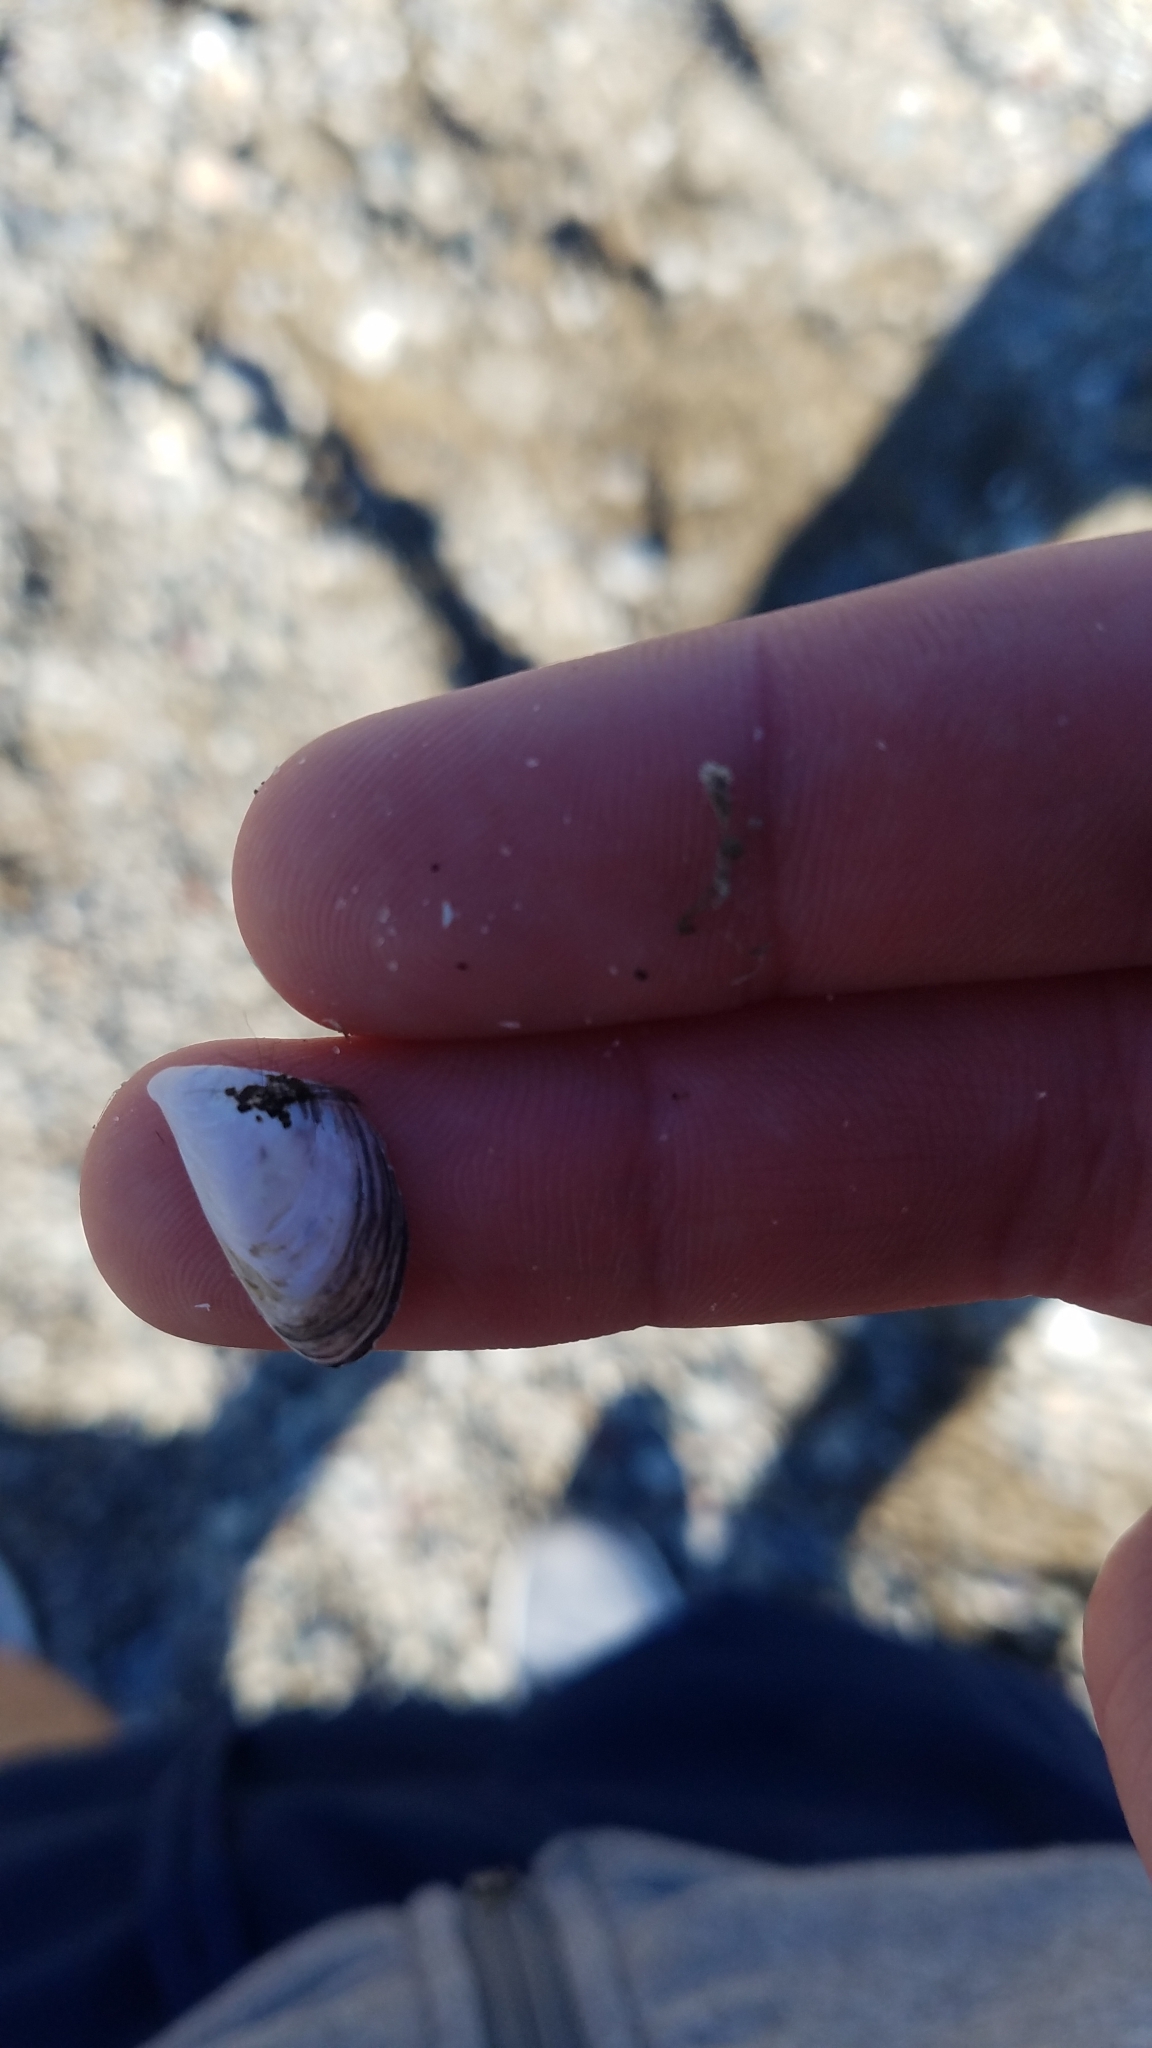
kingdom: Animalia
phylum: Mollusca
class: Bivalvia
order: Myida
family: Dreissenidae
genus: Dreissena
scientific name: Dreissena polymorpha
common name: Zebra mussel
